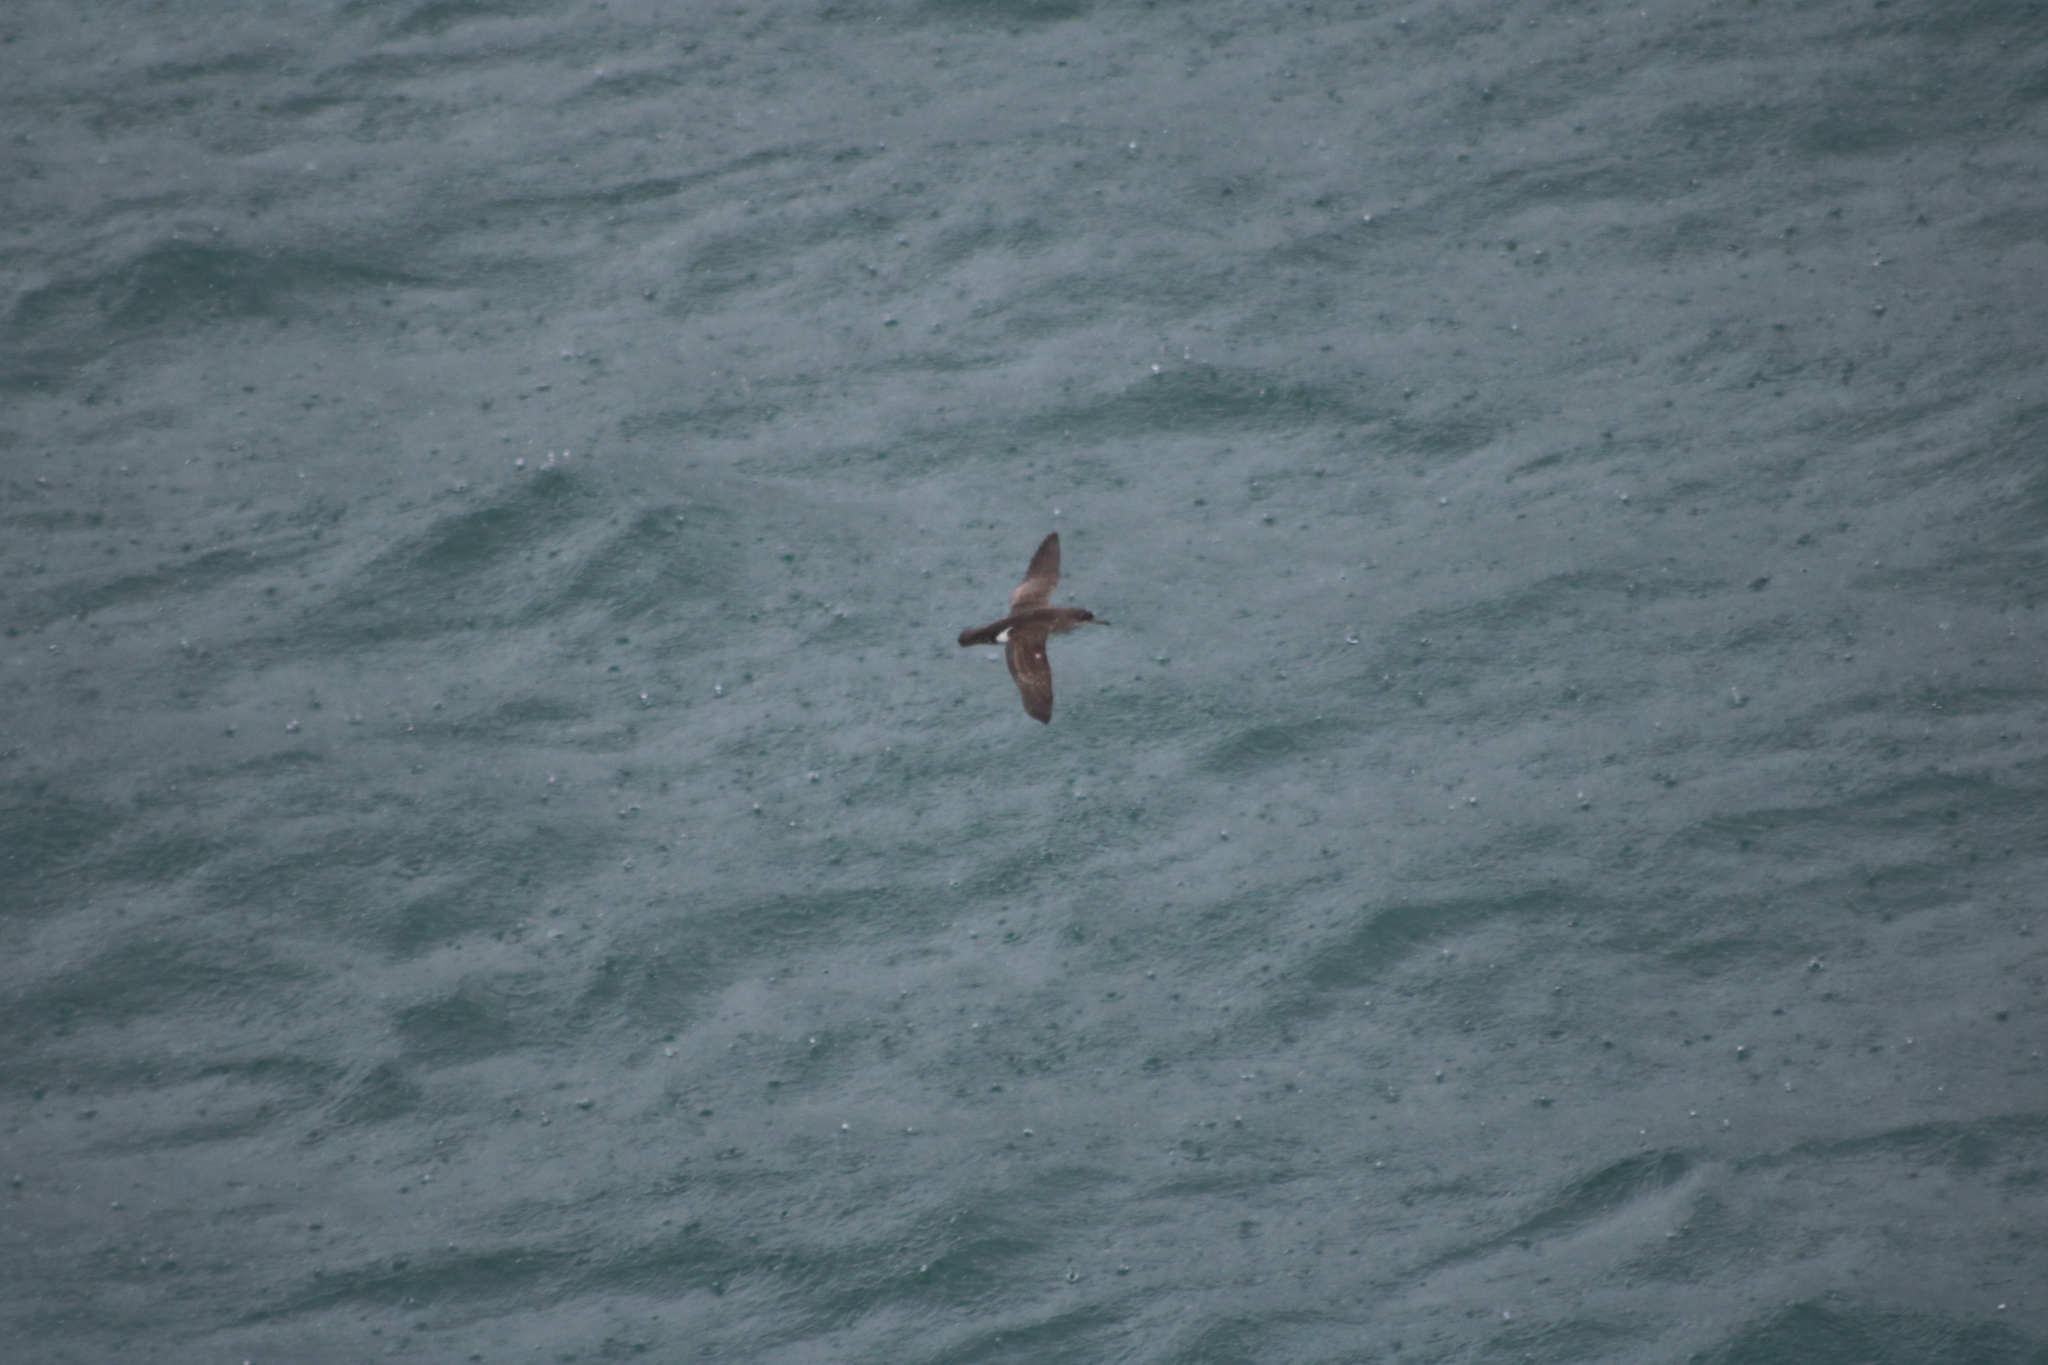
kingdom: Animalia
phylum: Chordata
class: Aves
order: Procellariiformes
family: Procellariidae
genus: Puffinus
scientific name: Puffinus gavia
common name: Fluttering shearwater
